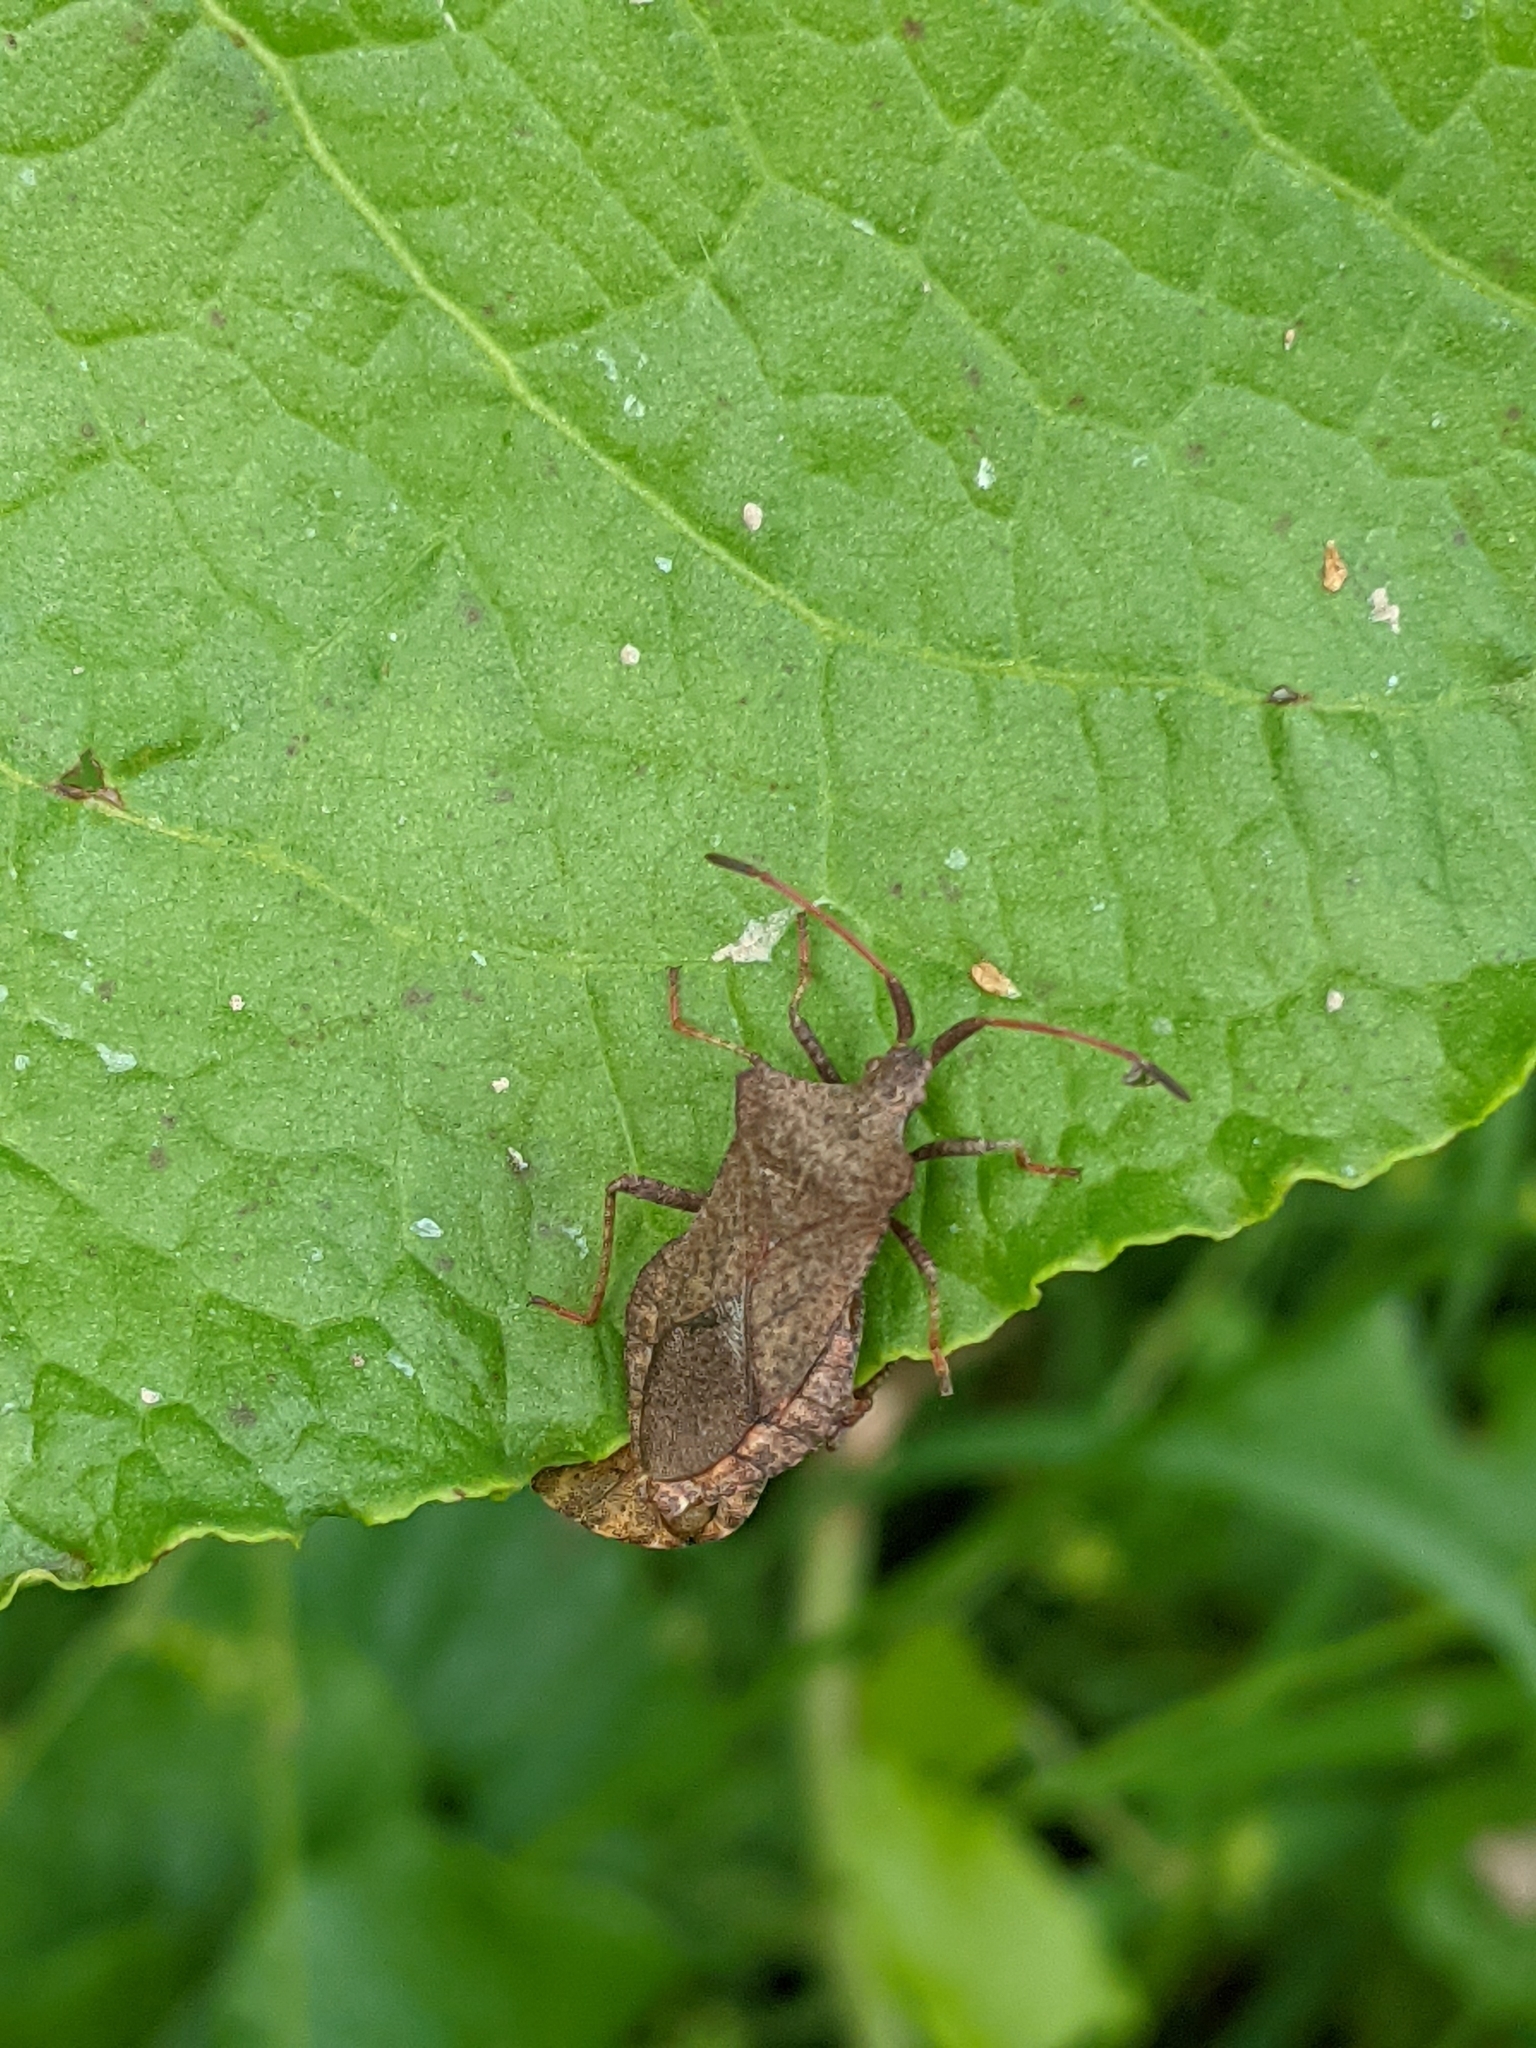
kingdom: Animalia
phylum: Arthropoda
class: Insecta
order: Hemiptera
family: Coreidae
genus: Coreus
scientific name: Coreus marginatus
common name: Dock bug
